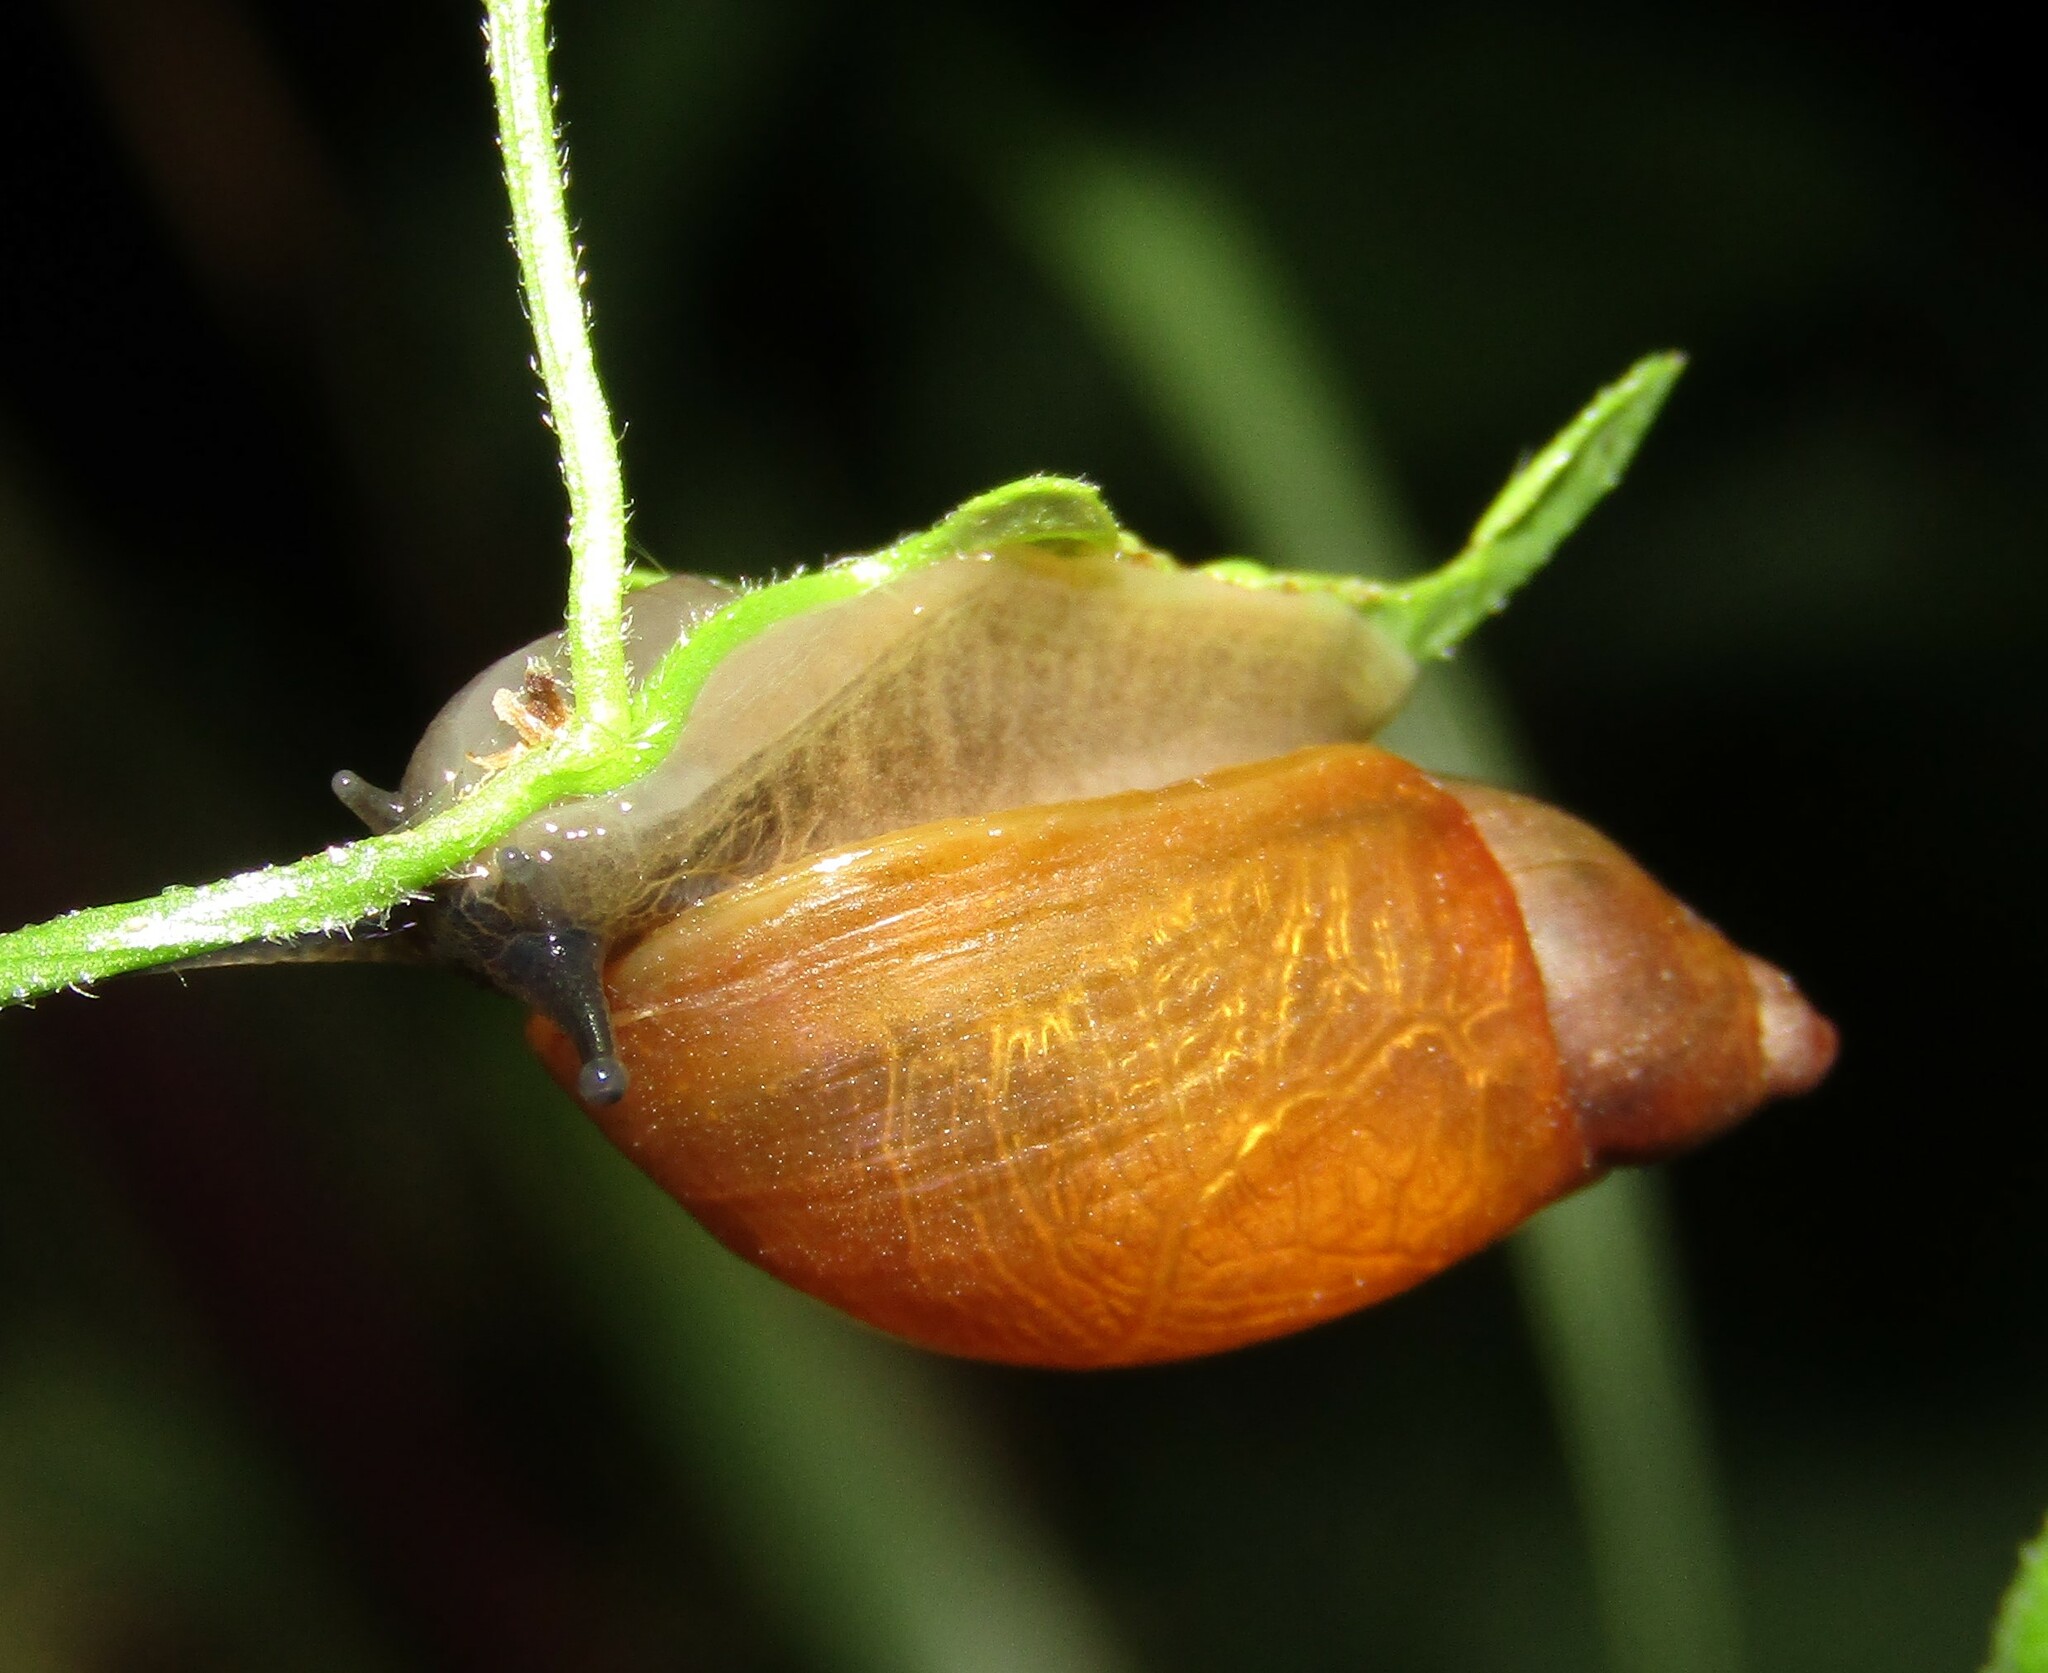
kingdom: Animalia
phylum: Mollusca
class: Gastropoda
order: Stylommatophora
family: Succineidae
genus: Succinea
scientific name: Succinea putris
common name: European ambersnail
